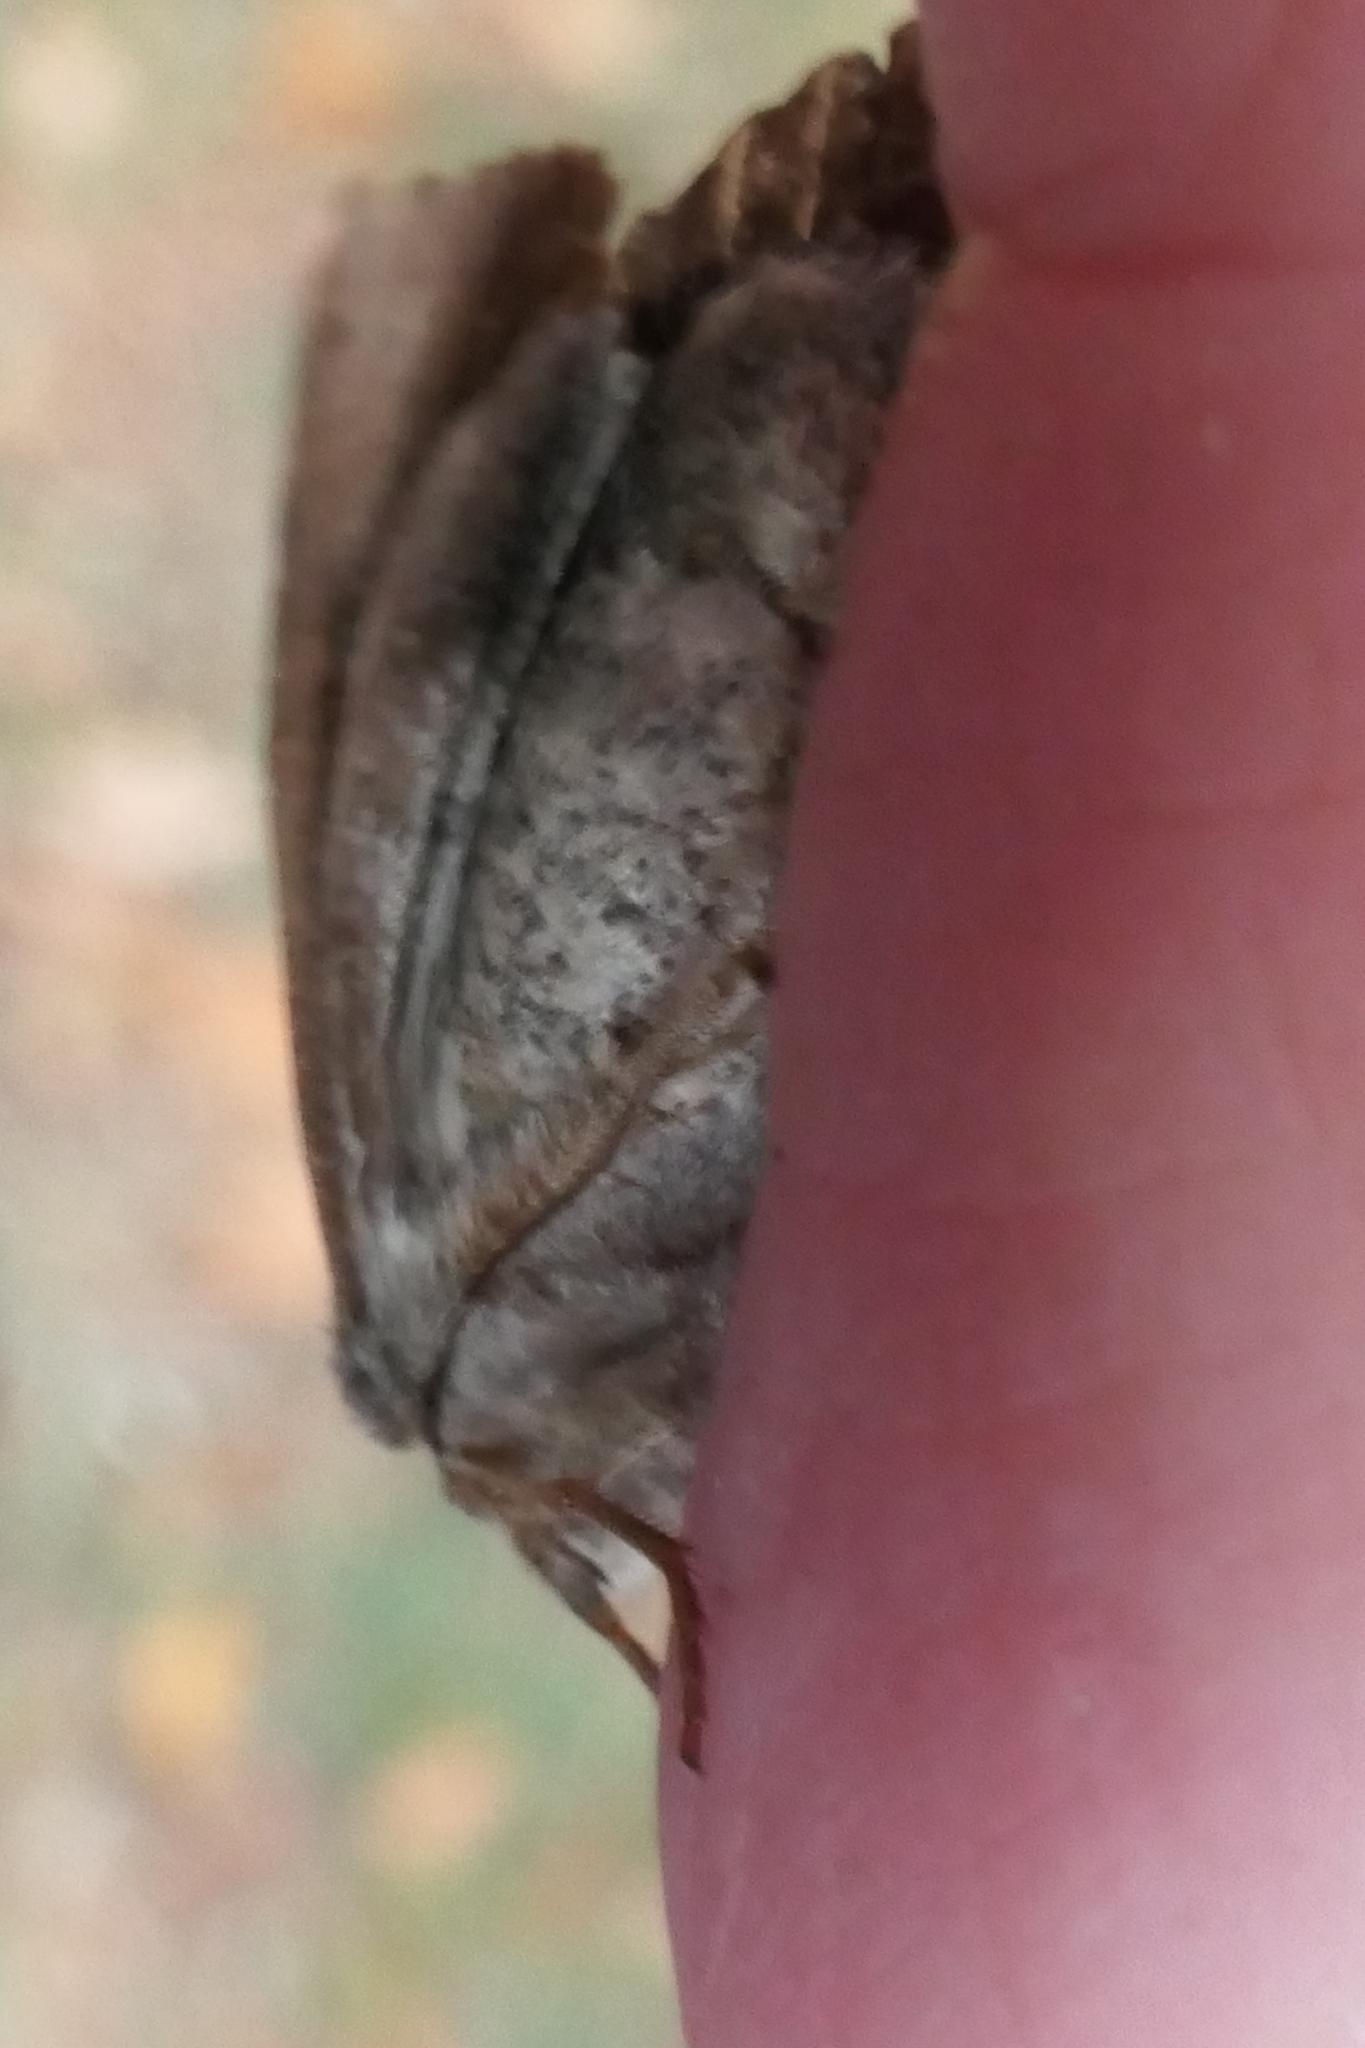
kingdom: Animalia
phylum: Arthropoda
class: Insecta
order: Lepidoptera
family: Noctuidae
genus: Ichneutica
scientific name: Ichneutica
